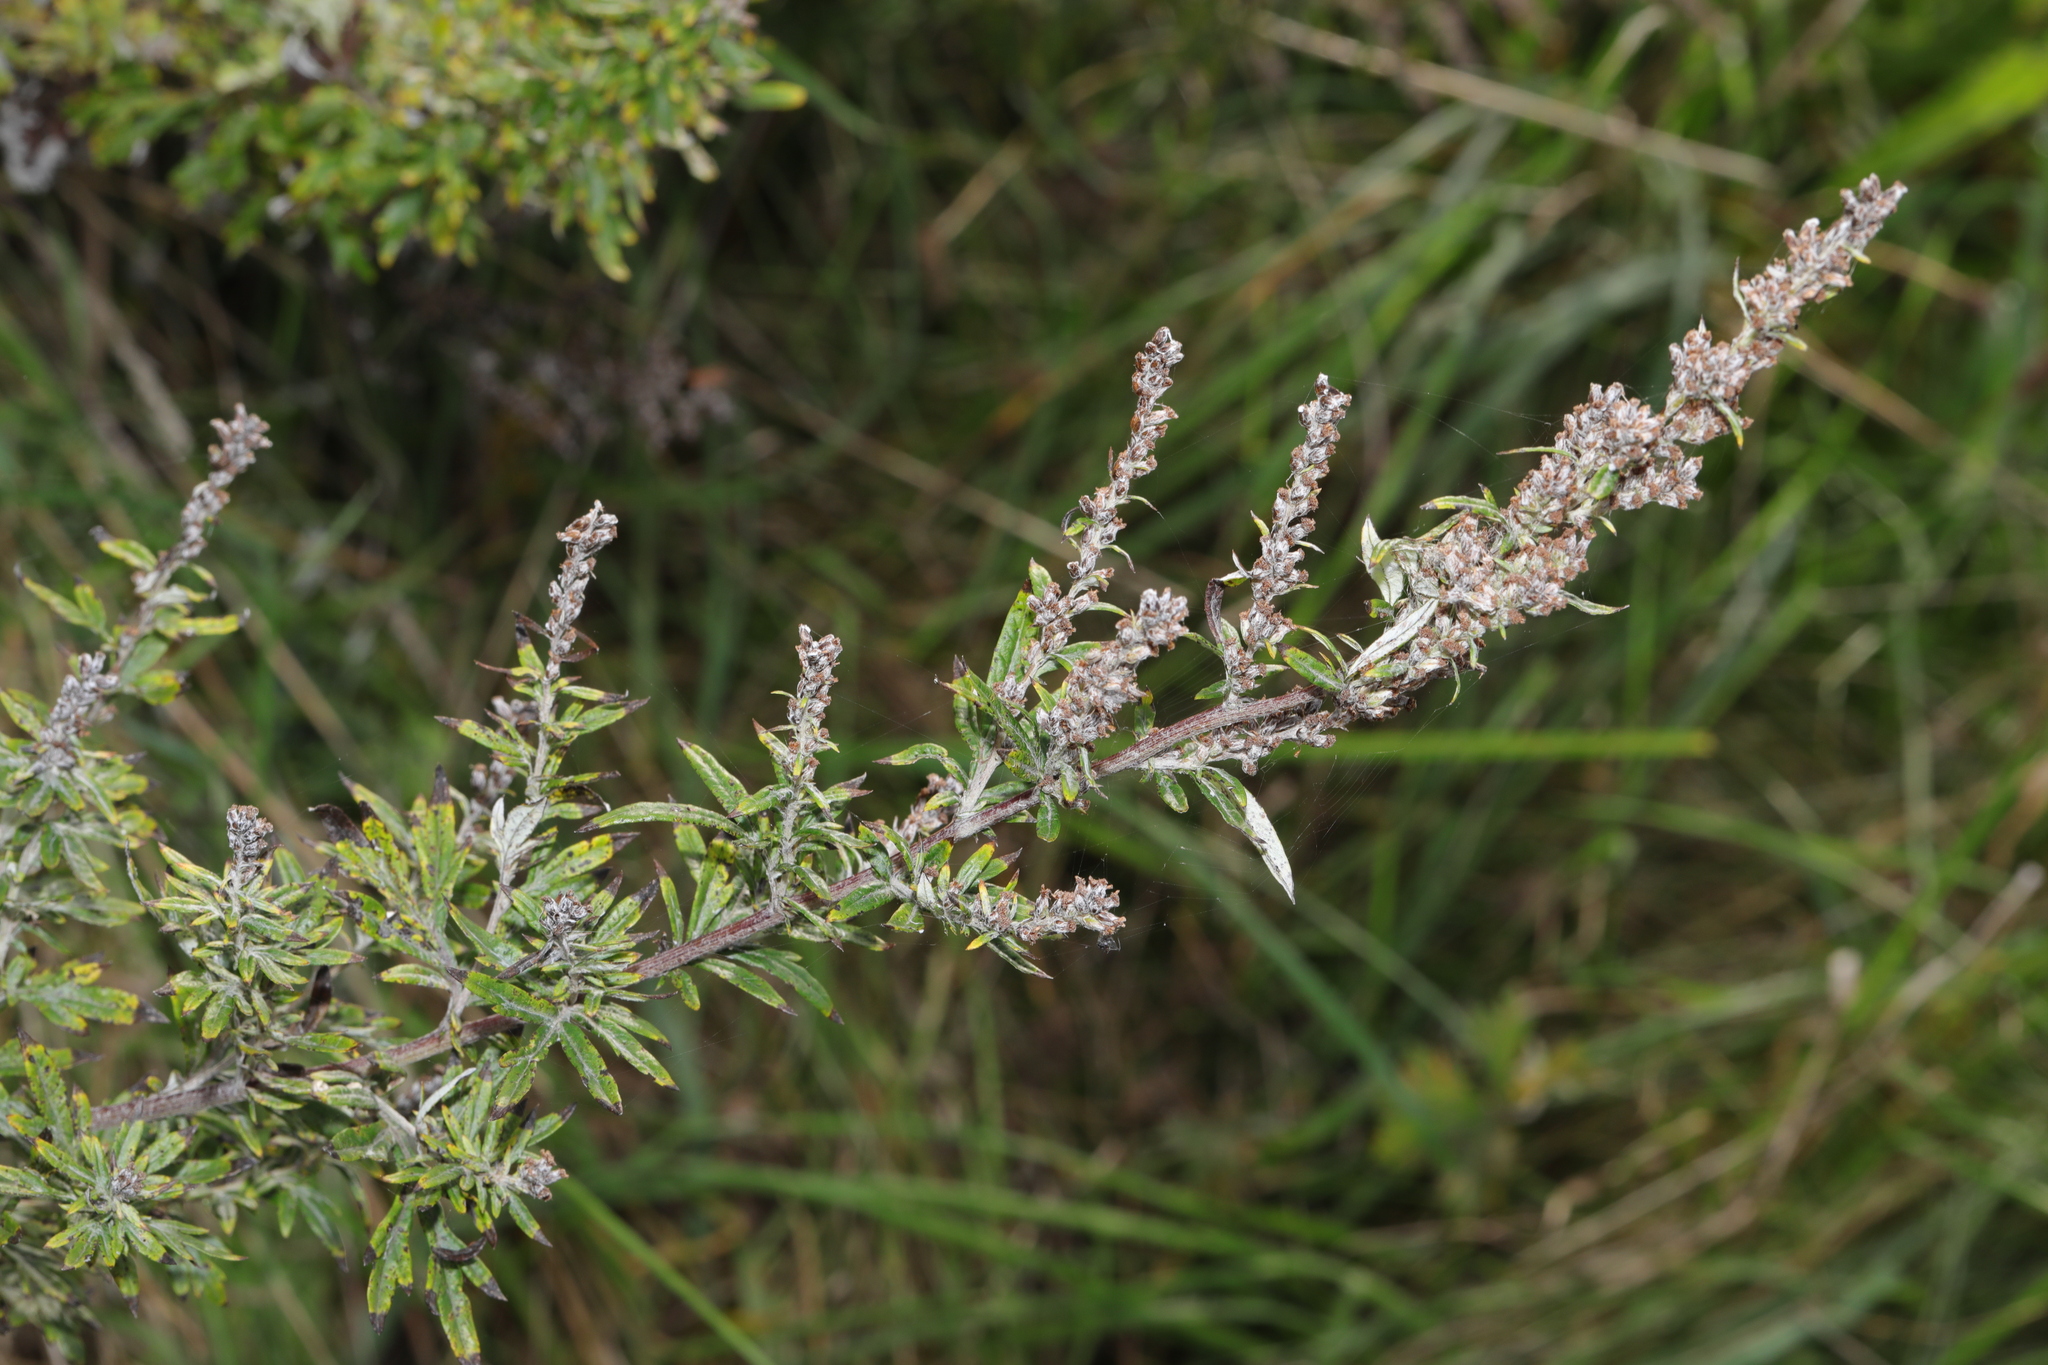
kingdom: Plantae
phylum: Tracheophyta
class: Magnoliopsida
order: Asterales
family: Asteraceae
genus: Artemisia
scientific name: Artemisia vulgaris
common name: Mugwort
